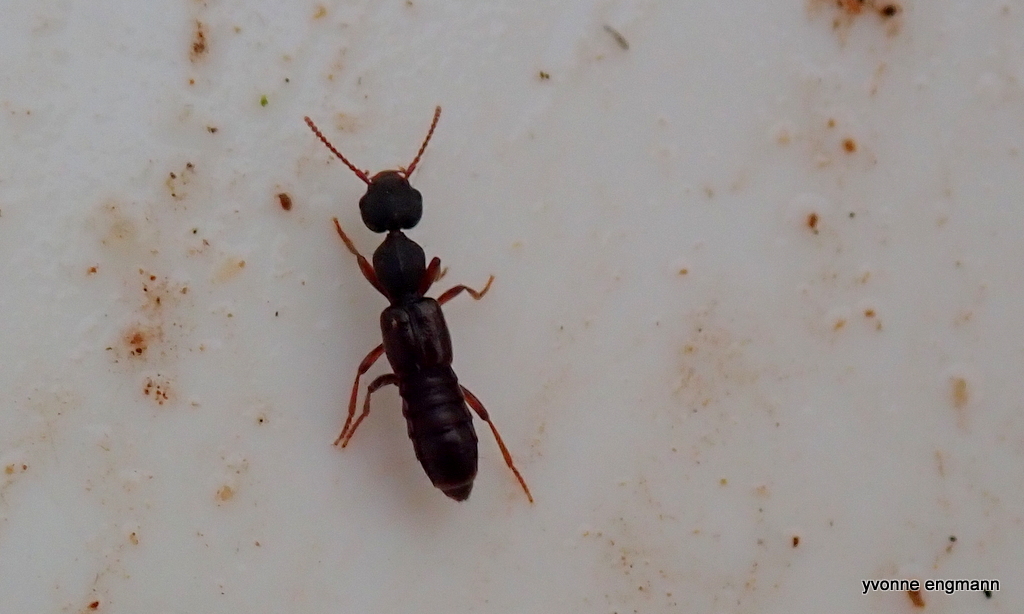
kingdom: Animalia
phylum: Arthropoda
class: Insecta
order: Coleoptera
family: Staphylinidae
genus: Rugilus
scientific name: Rugilus rufipes
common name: Staph beetle
